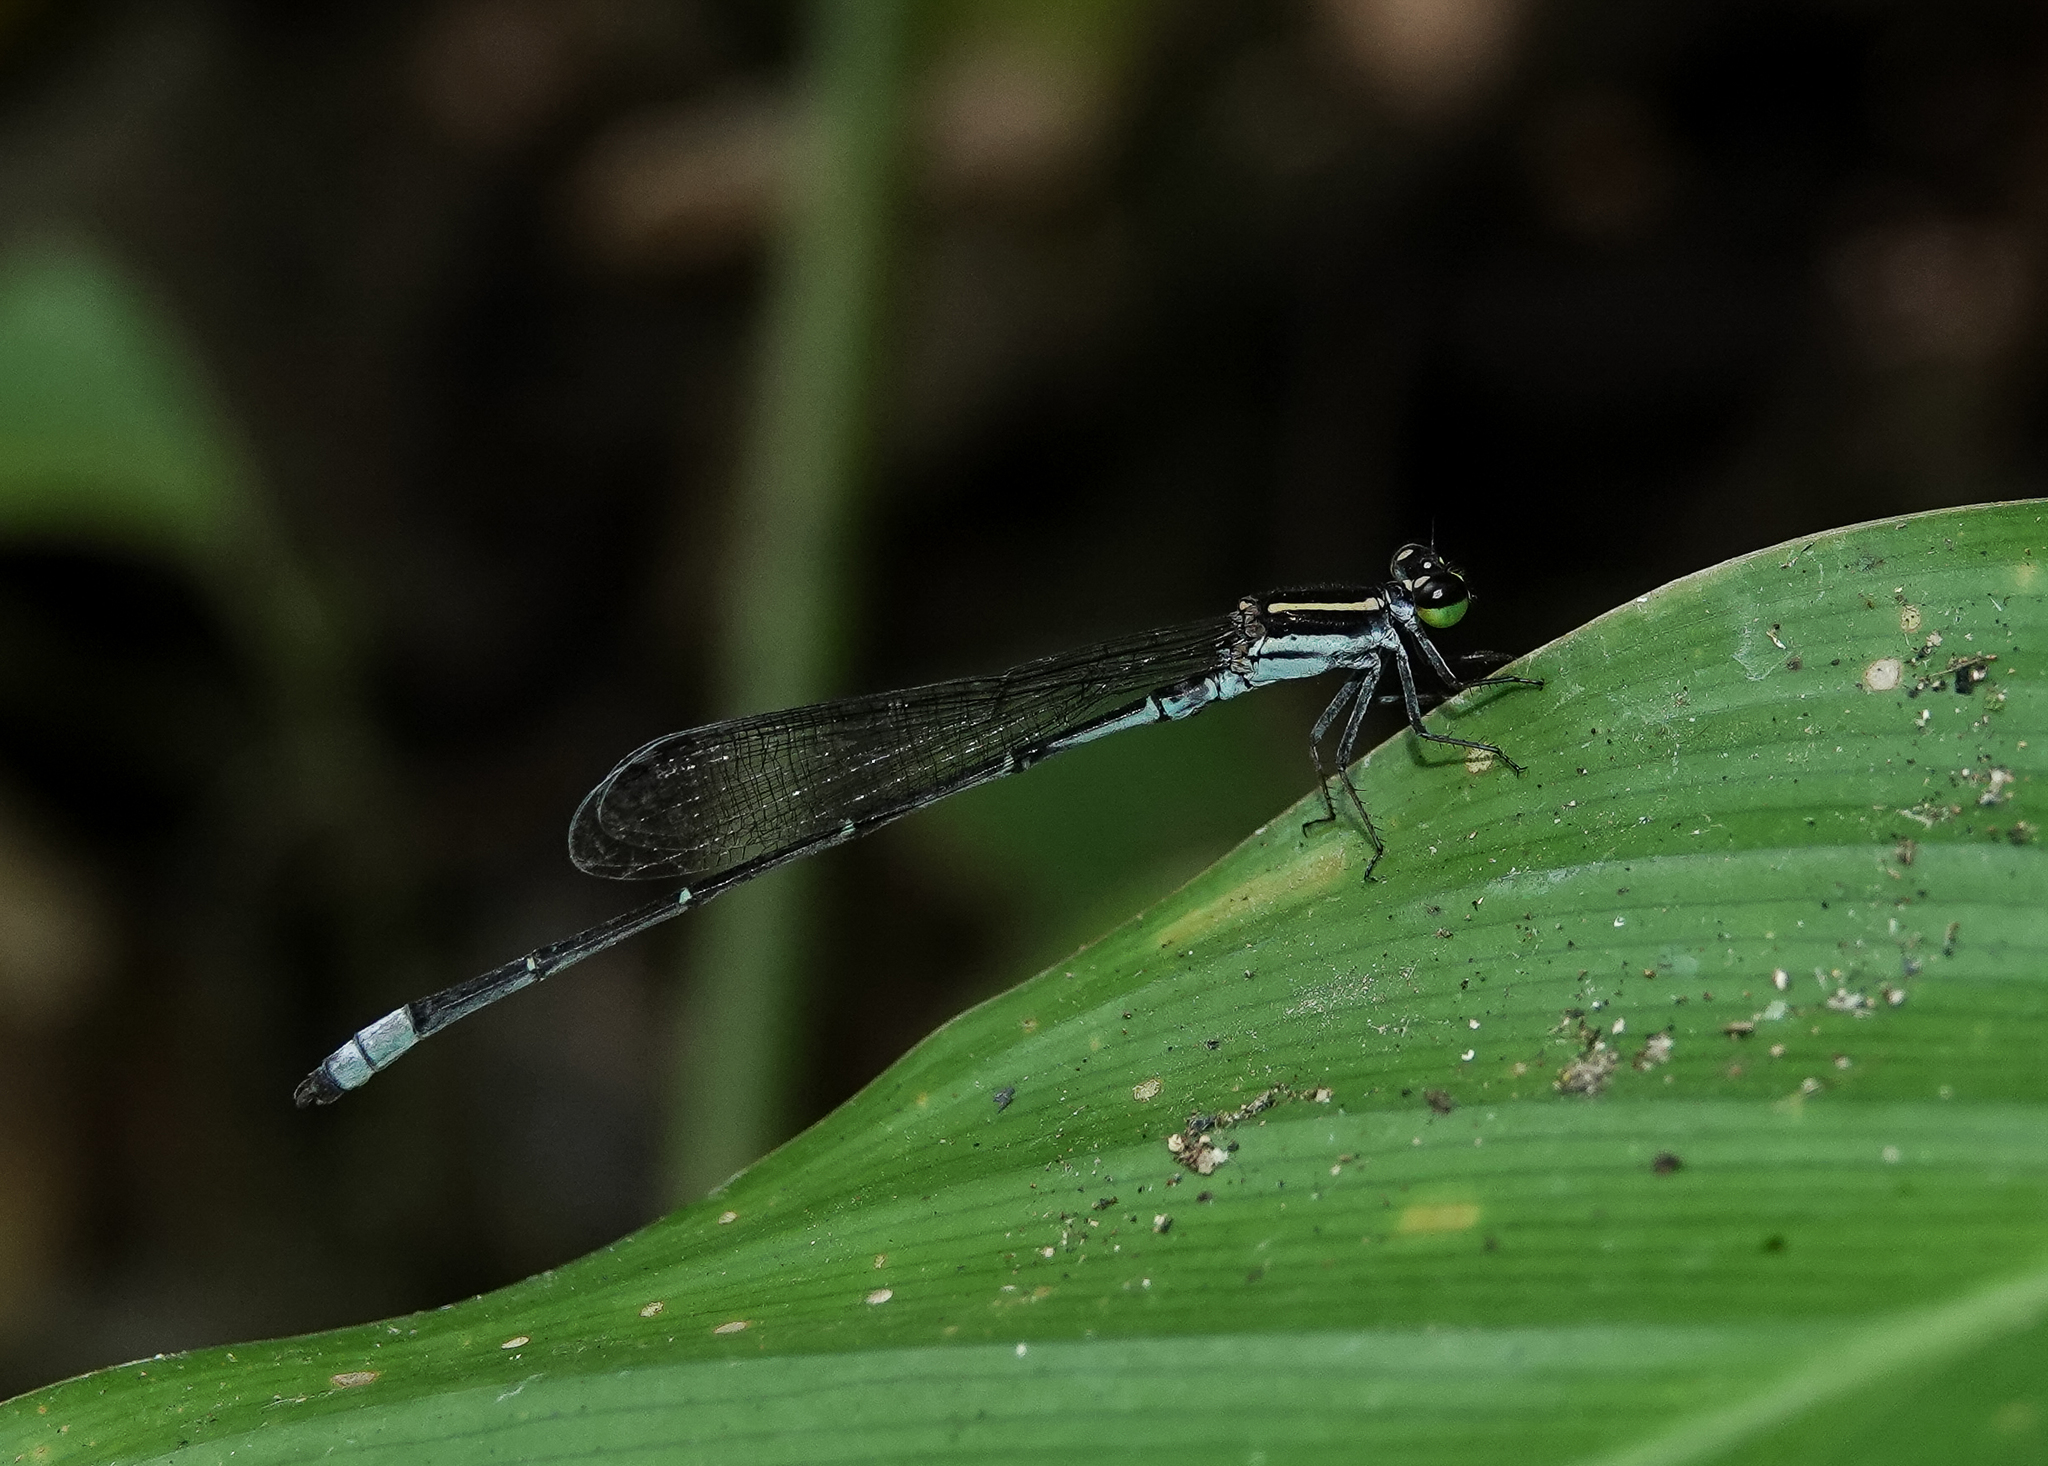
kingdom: Animalia
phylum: Arthropoda
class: Insecta
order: Odonata
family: Coenagrionidae
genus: Argiocnemis
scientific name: Argiocnemis rubescens
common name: Red-tipped shadefly
